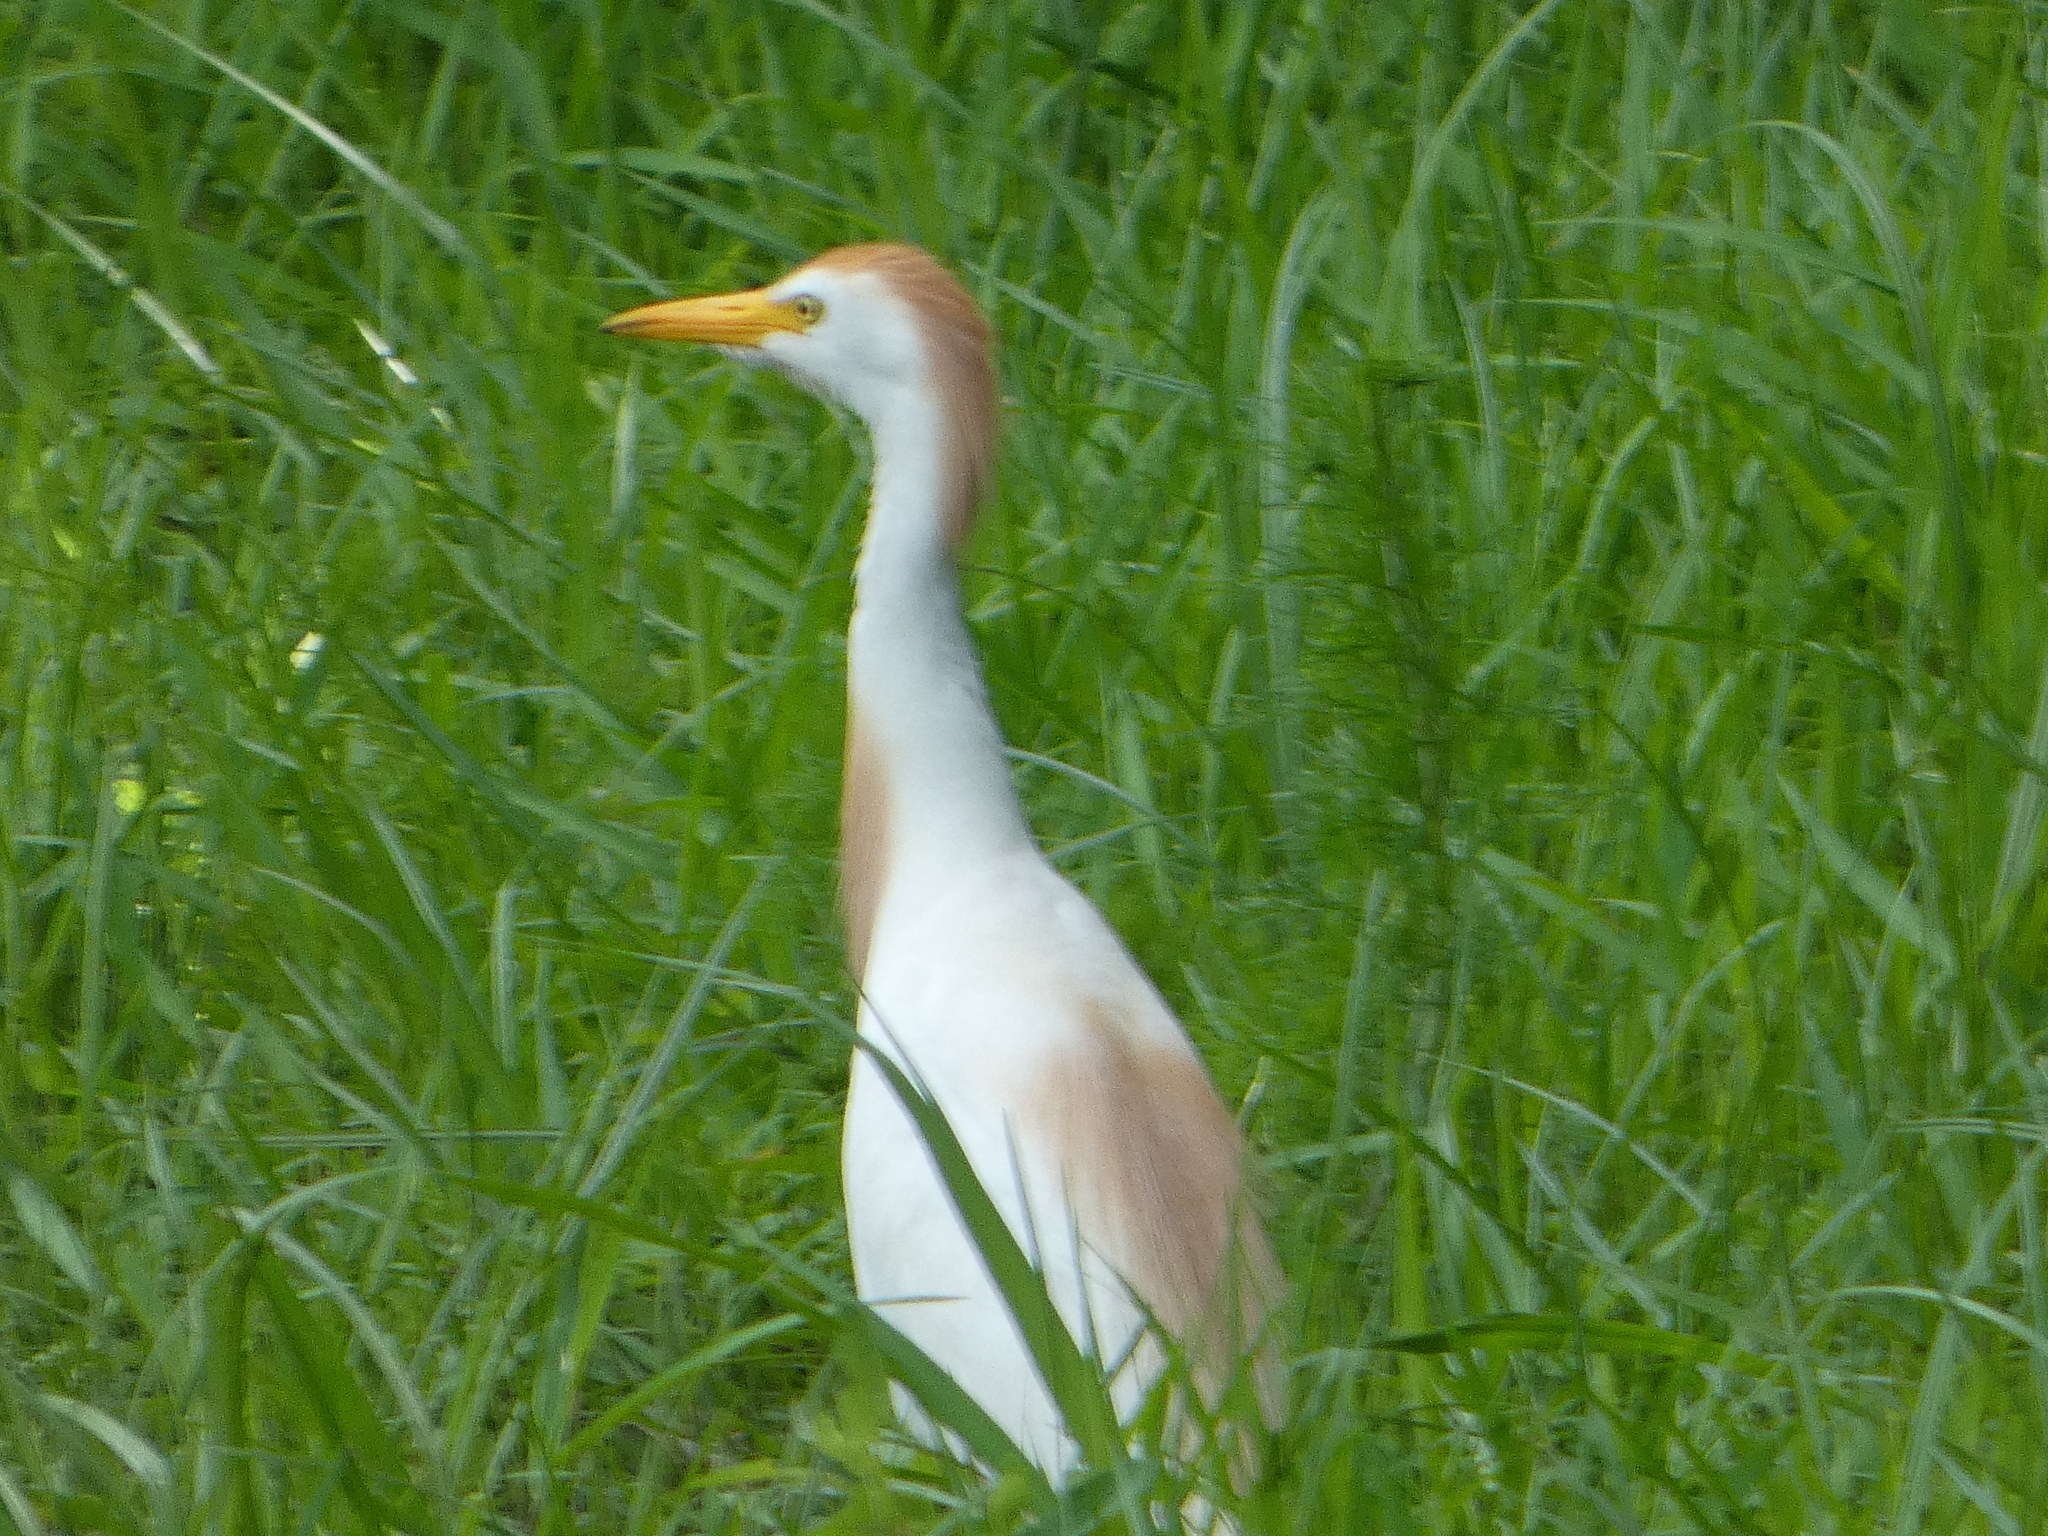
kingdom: Animalia
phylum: Chordata
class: Aves
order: Pelecaniformes
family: Ardeidae
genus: Bubulcus
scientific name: Bubulcus ibis
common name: Cattle egret
